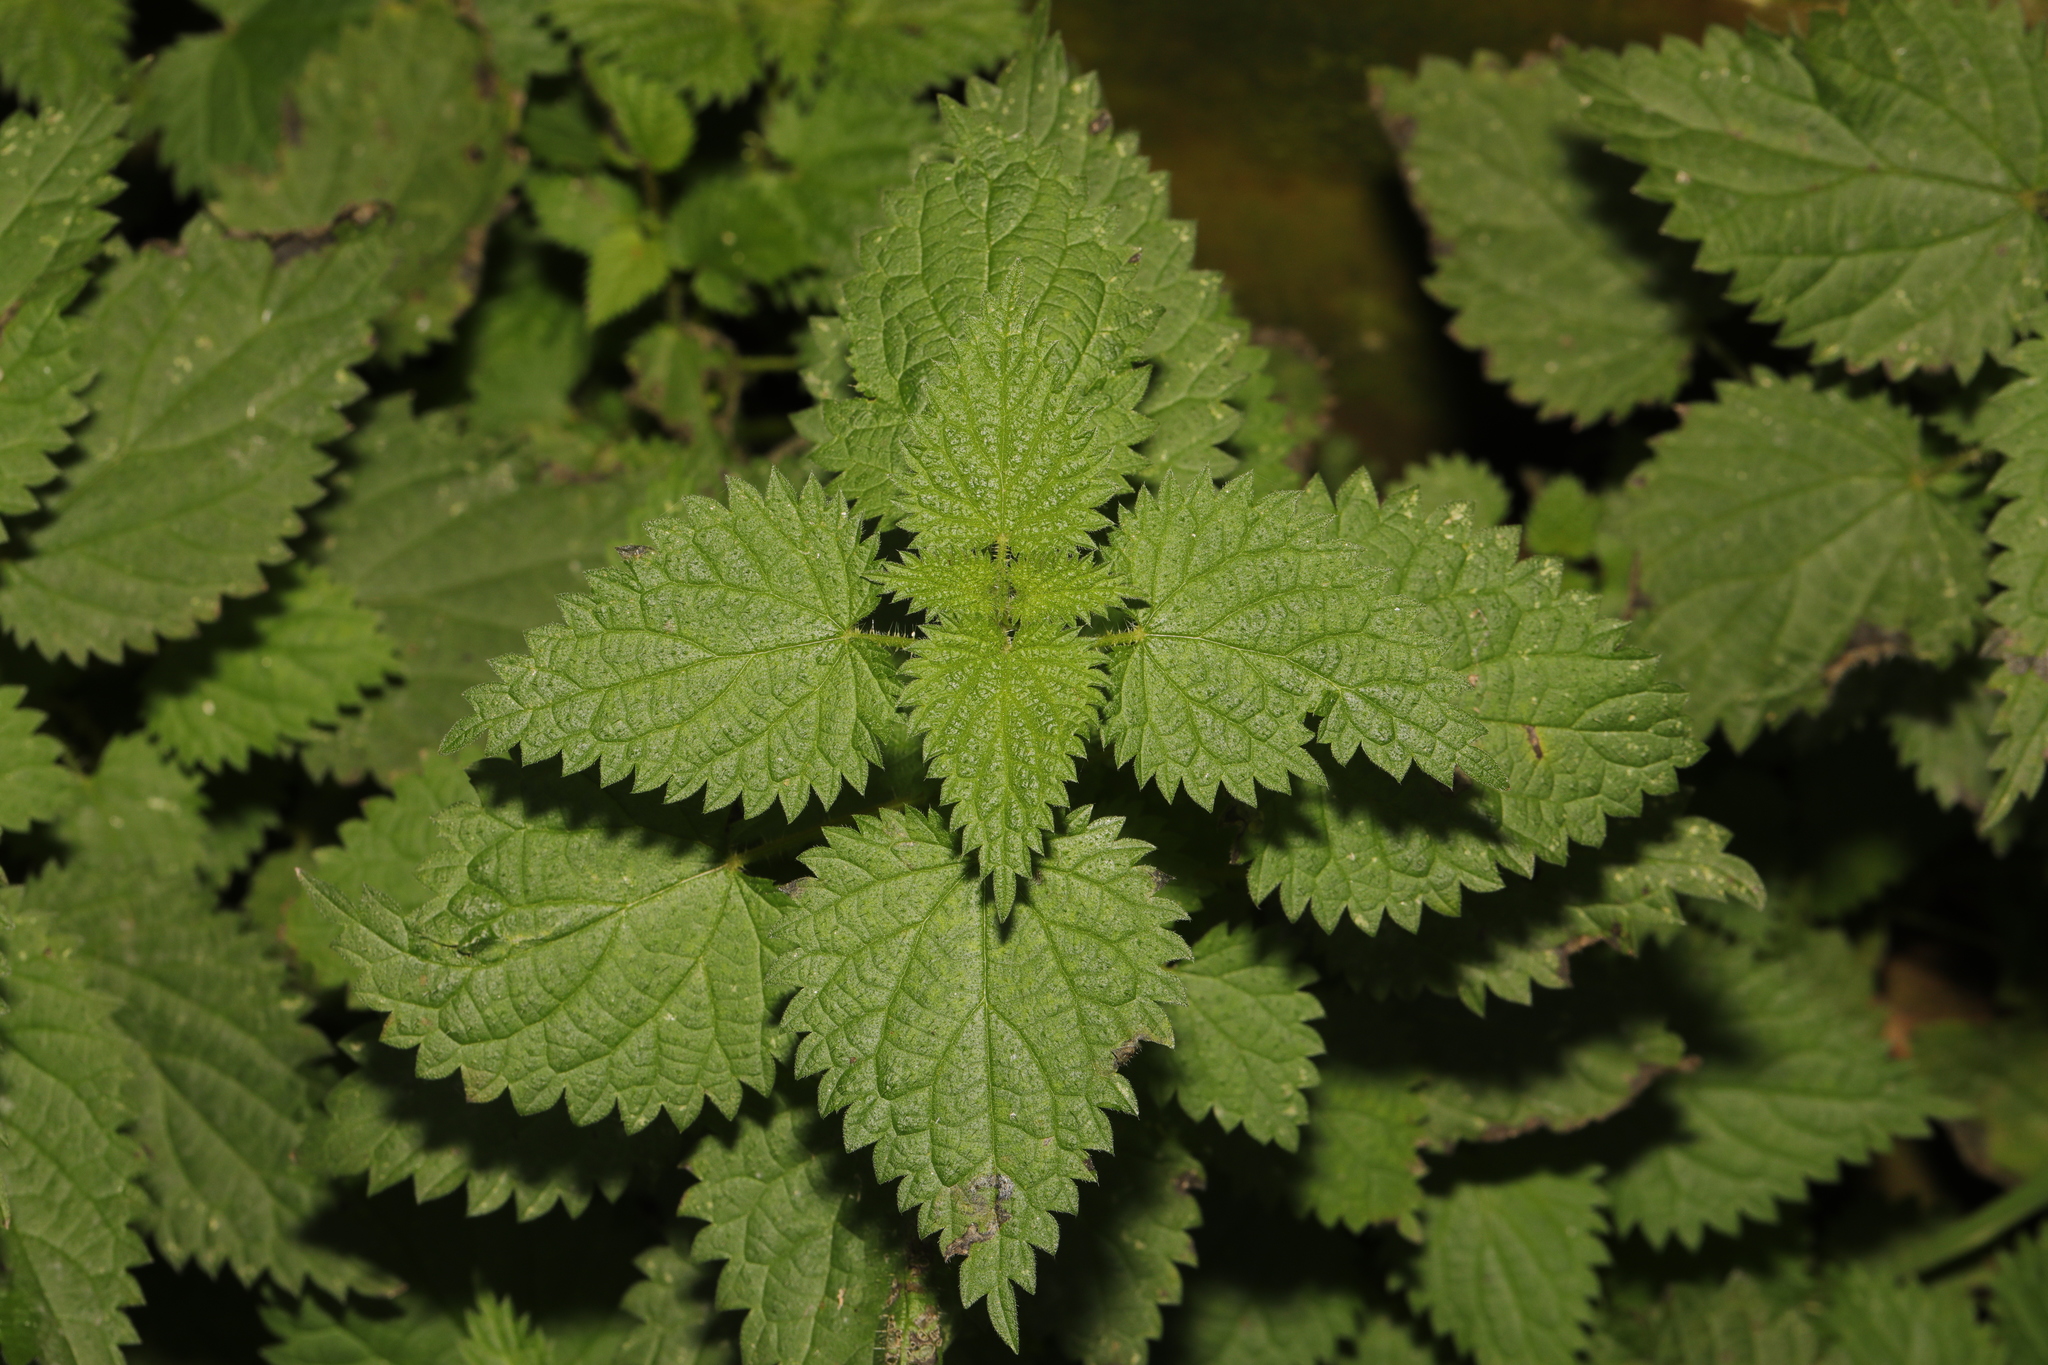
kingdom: Plantae
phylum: Tracheophyta
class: Magnoliopsida
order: Rosales
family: Urticaceae
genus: Urtica
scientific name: Urtica dioica
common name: Common nettle
